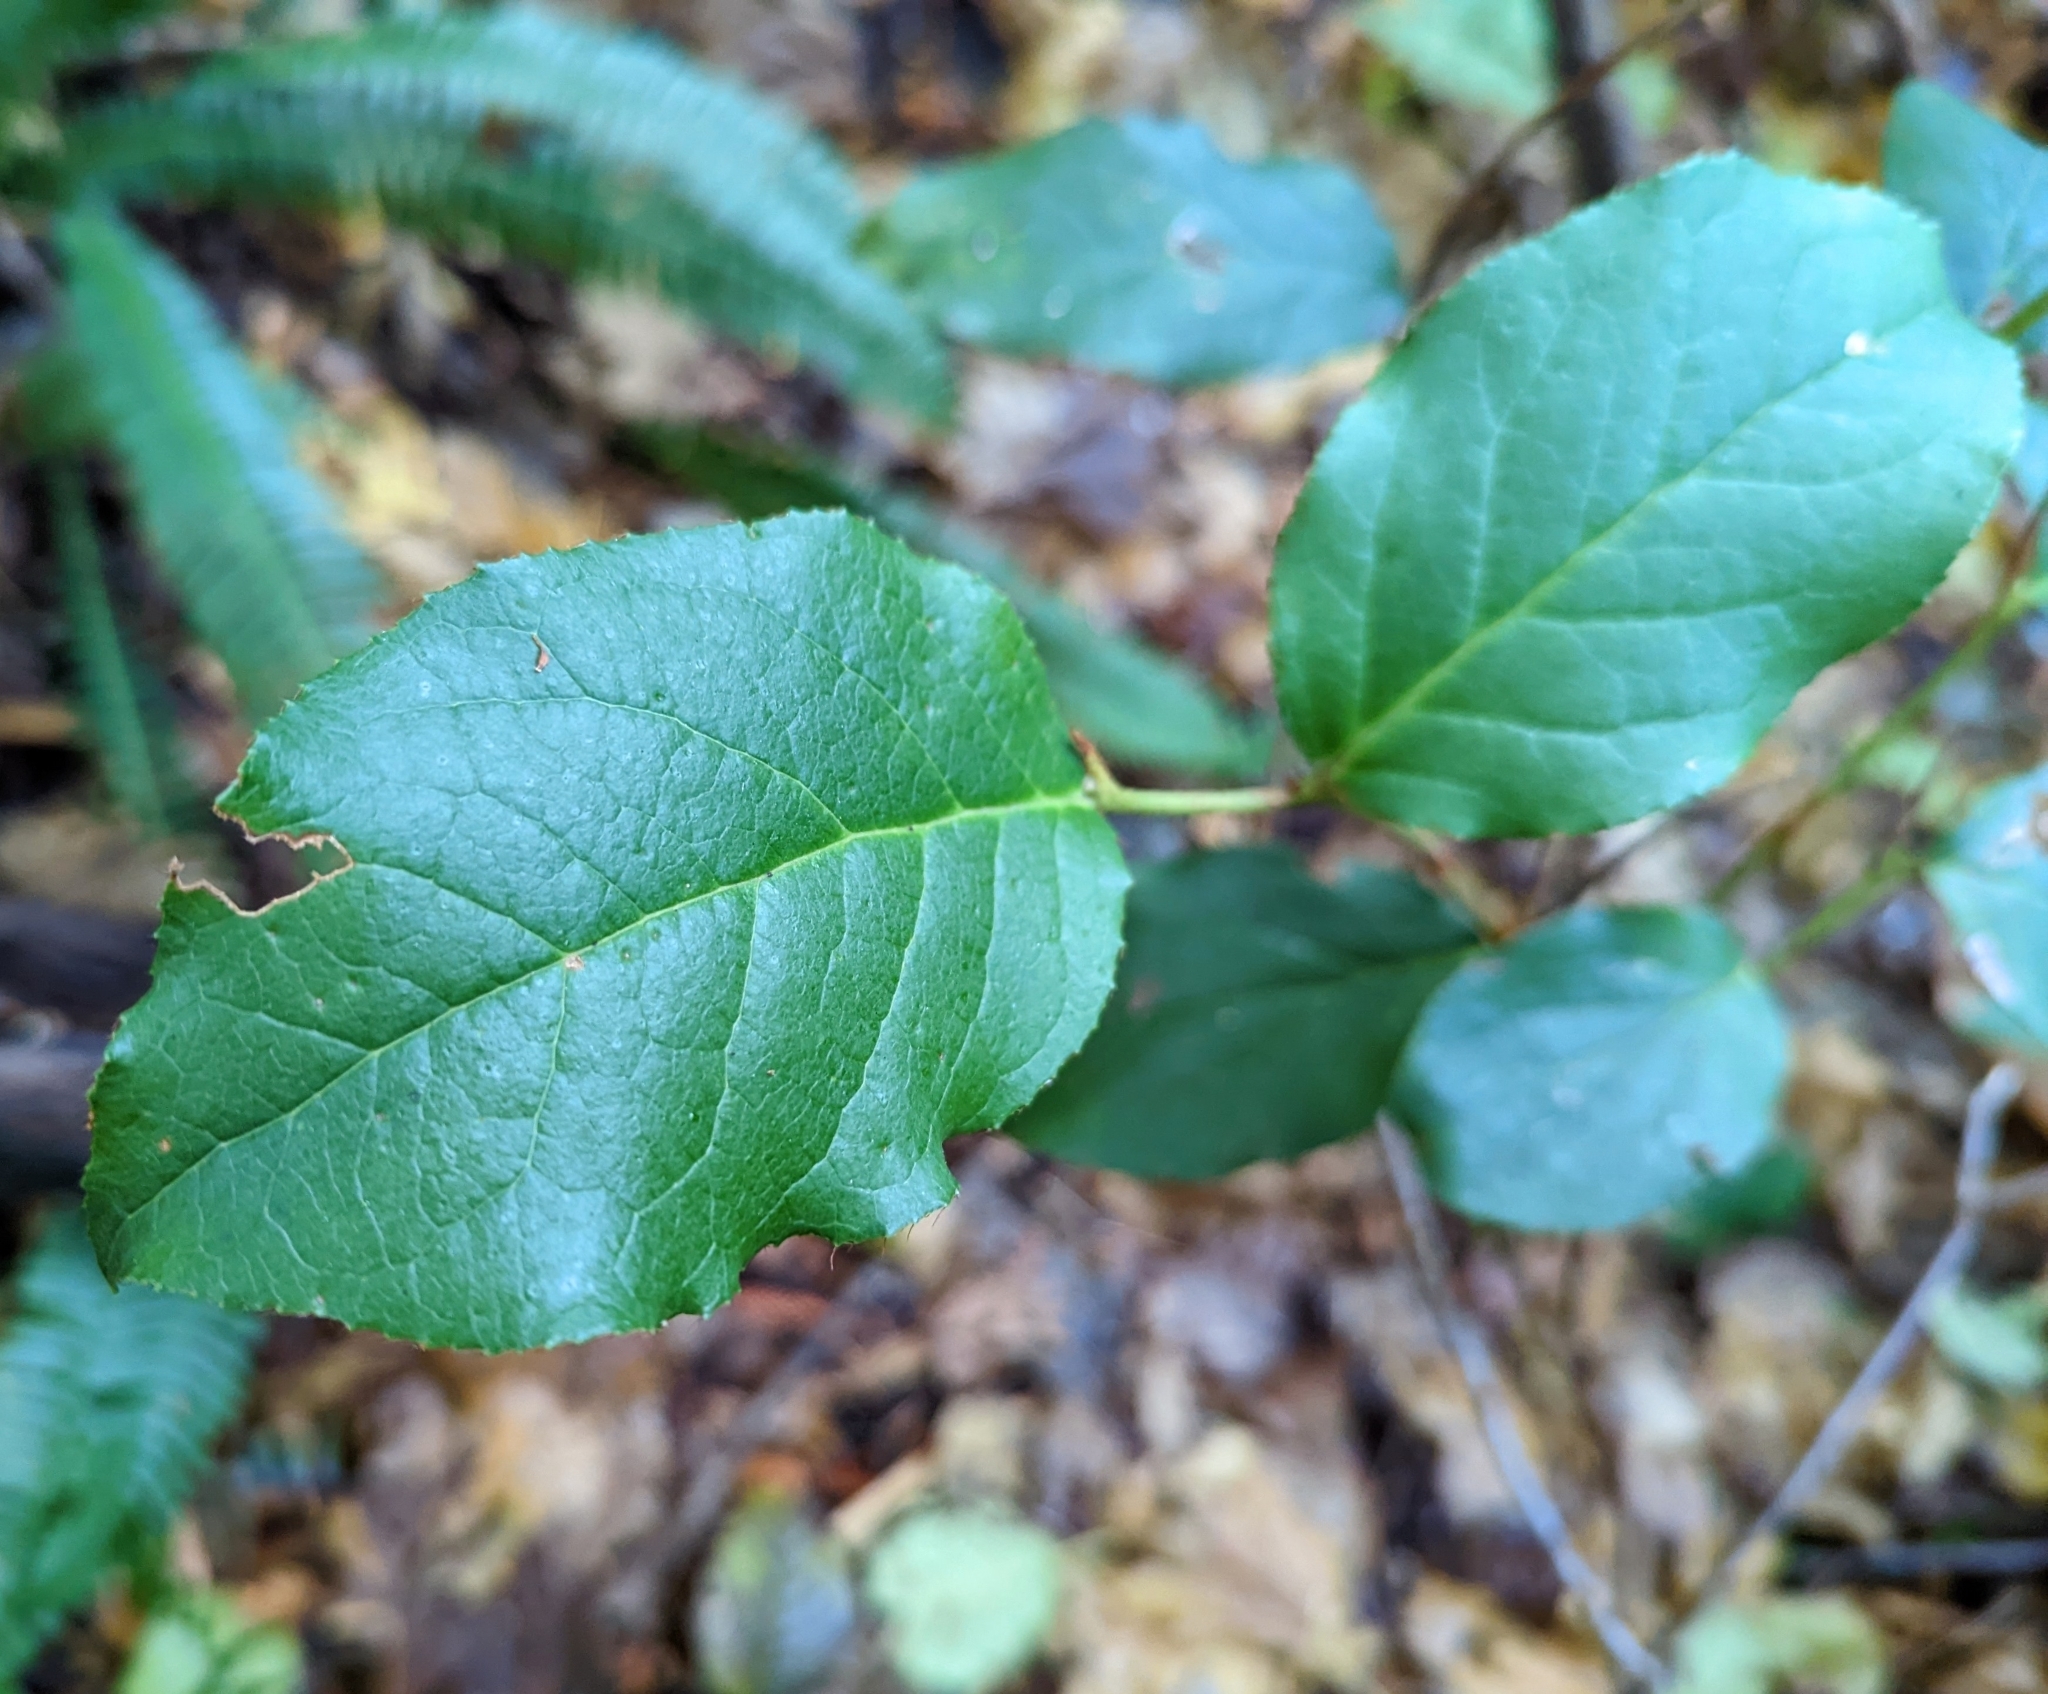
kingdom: Plantae
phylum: Tracheophyta
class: Magnoliopsida
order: Ericales
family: Ericaceae
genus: Gaultheria
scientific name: Gaultheria shallon
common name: Shallon
